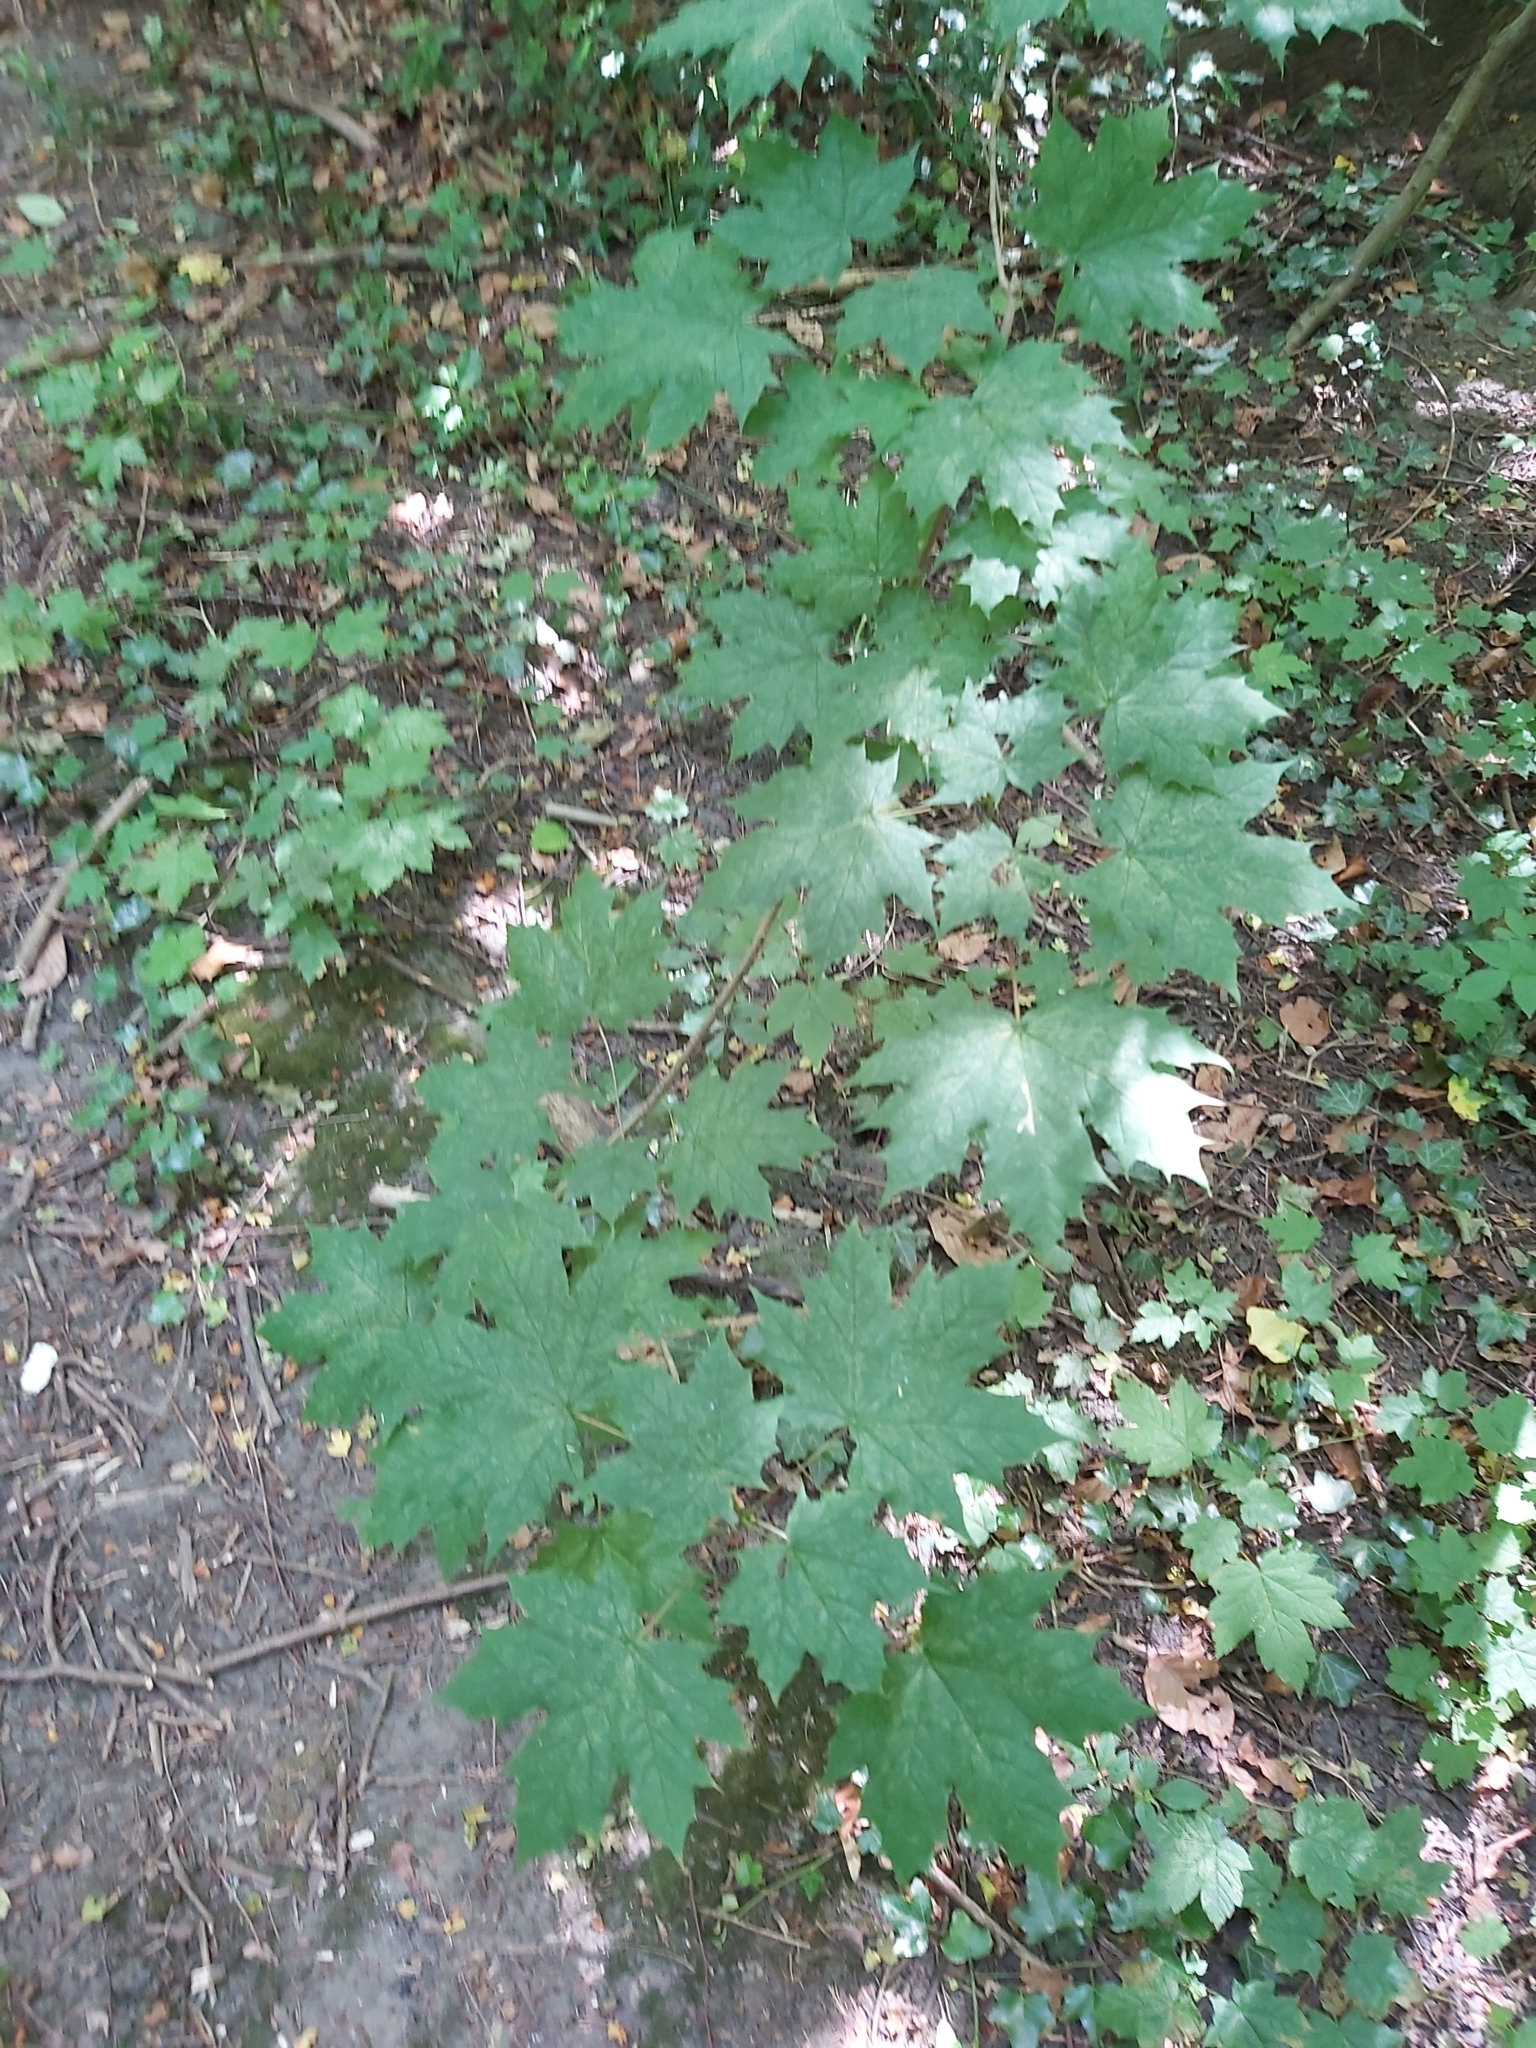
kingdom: Plantae
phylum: Tracheophyta
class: Magnoliopsida
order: Sapindales
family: Sapindaceae
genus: Acer
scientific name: Acer platanoides
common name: Norway maple
